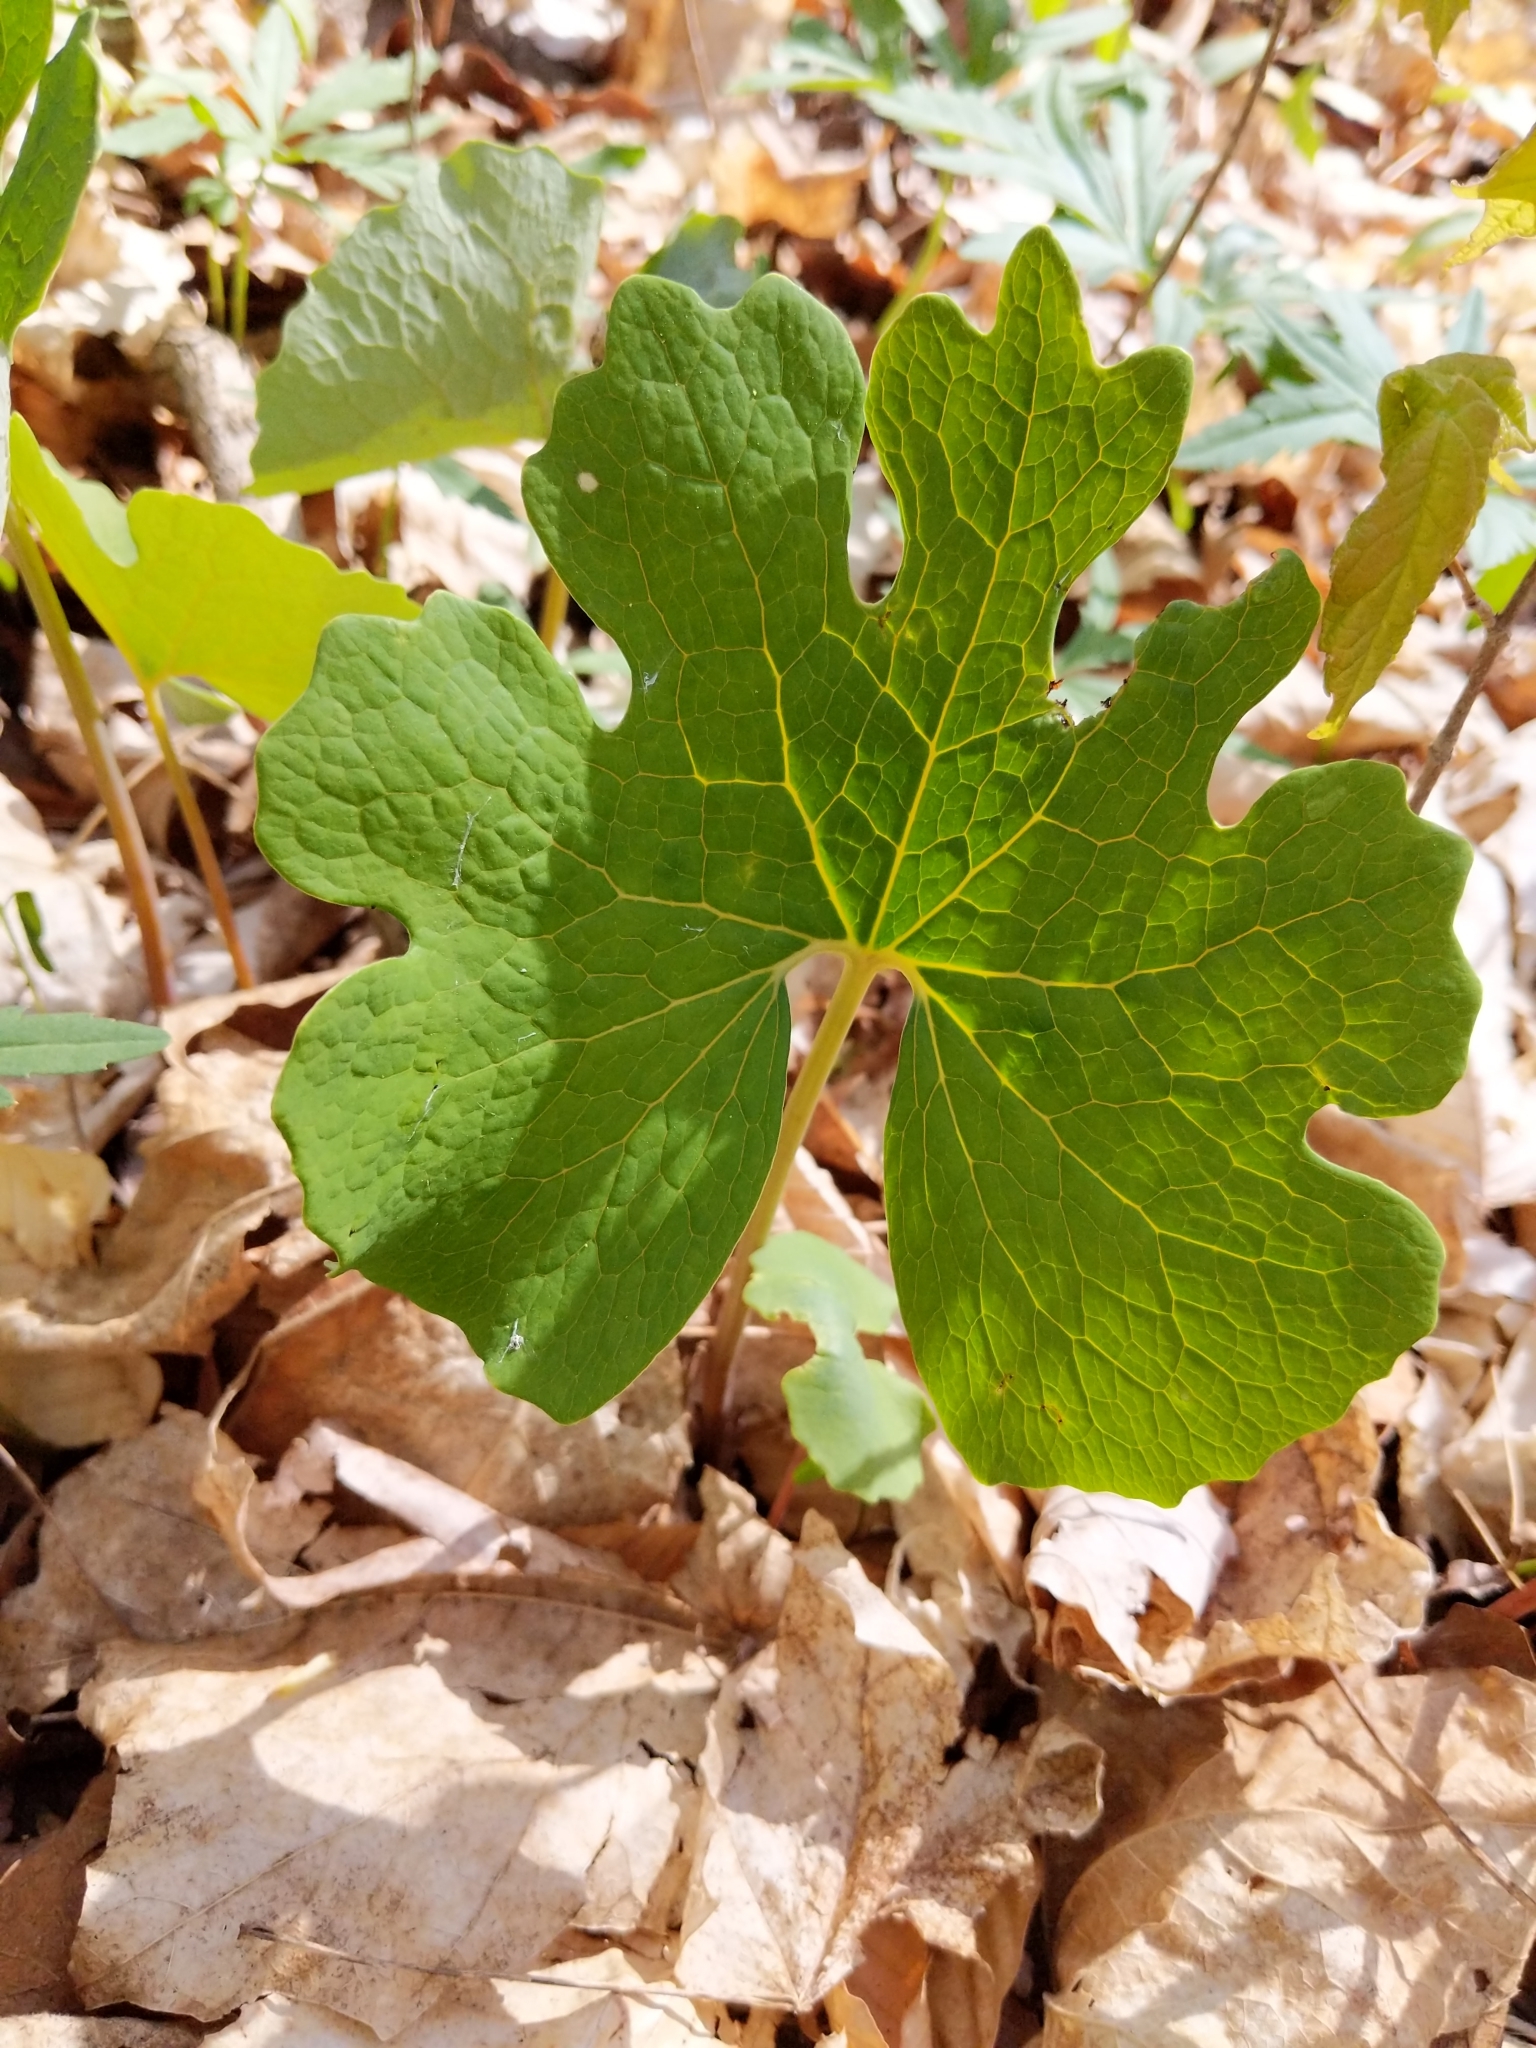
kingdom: Plantae
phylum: Tracheophyta
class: Magnoliopsida
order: Ranunculales
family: Papaveraceae
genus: Sanguinaria
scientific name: Sanguinaria canadensis
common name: Bloodroot
